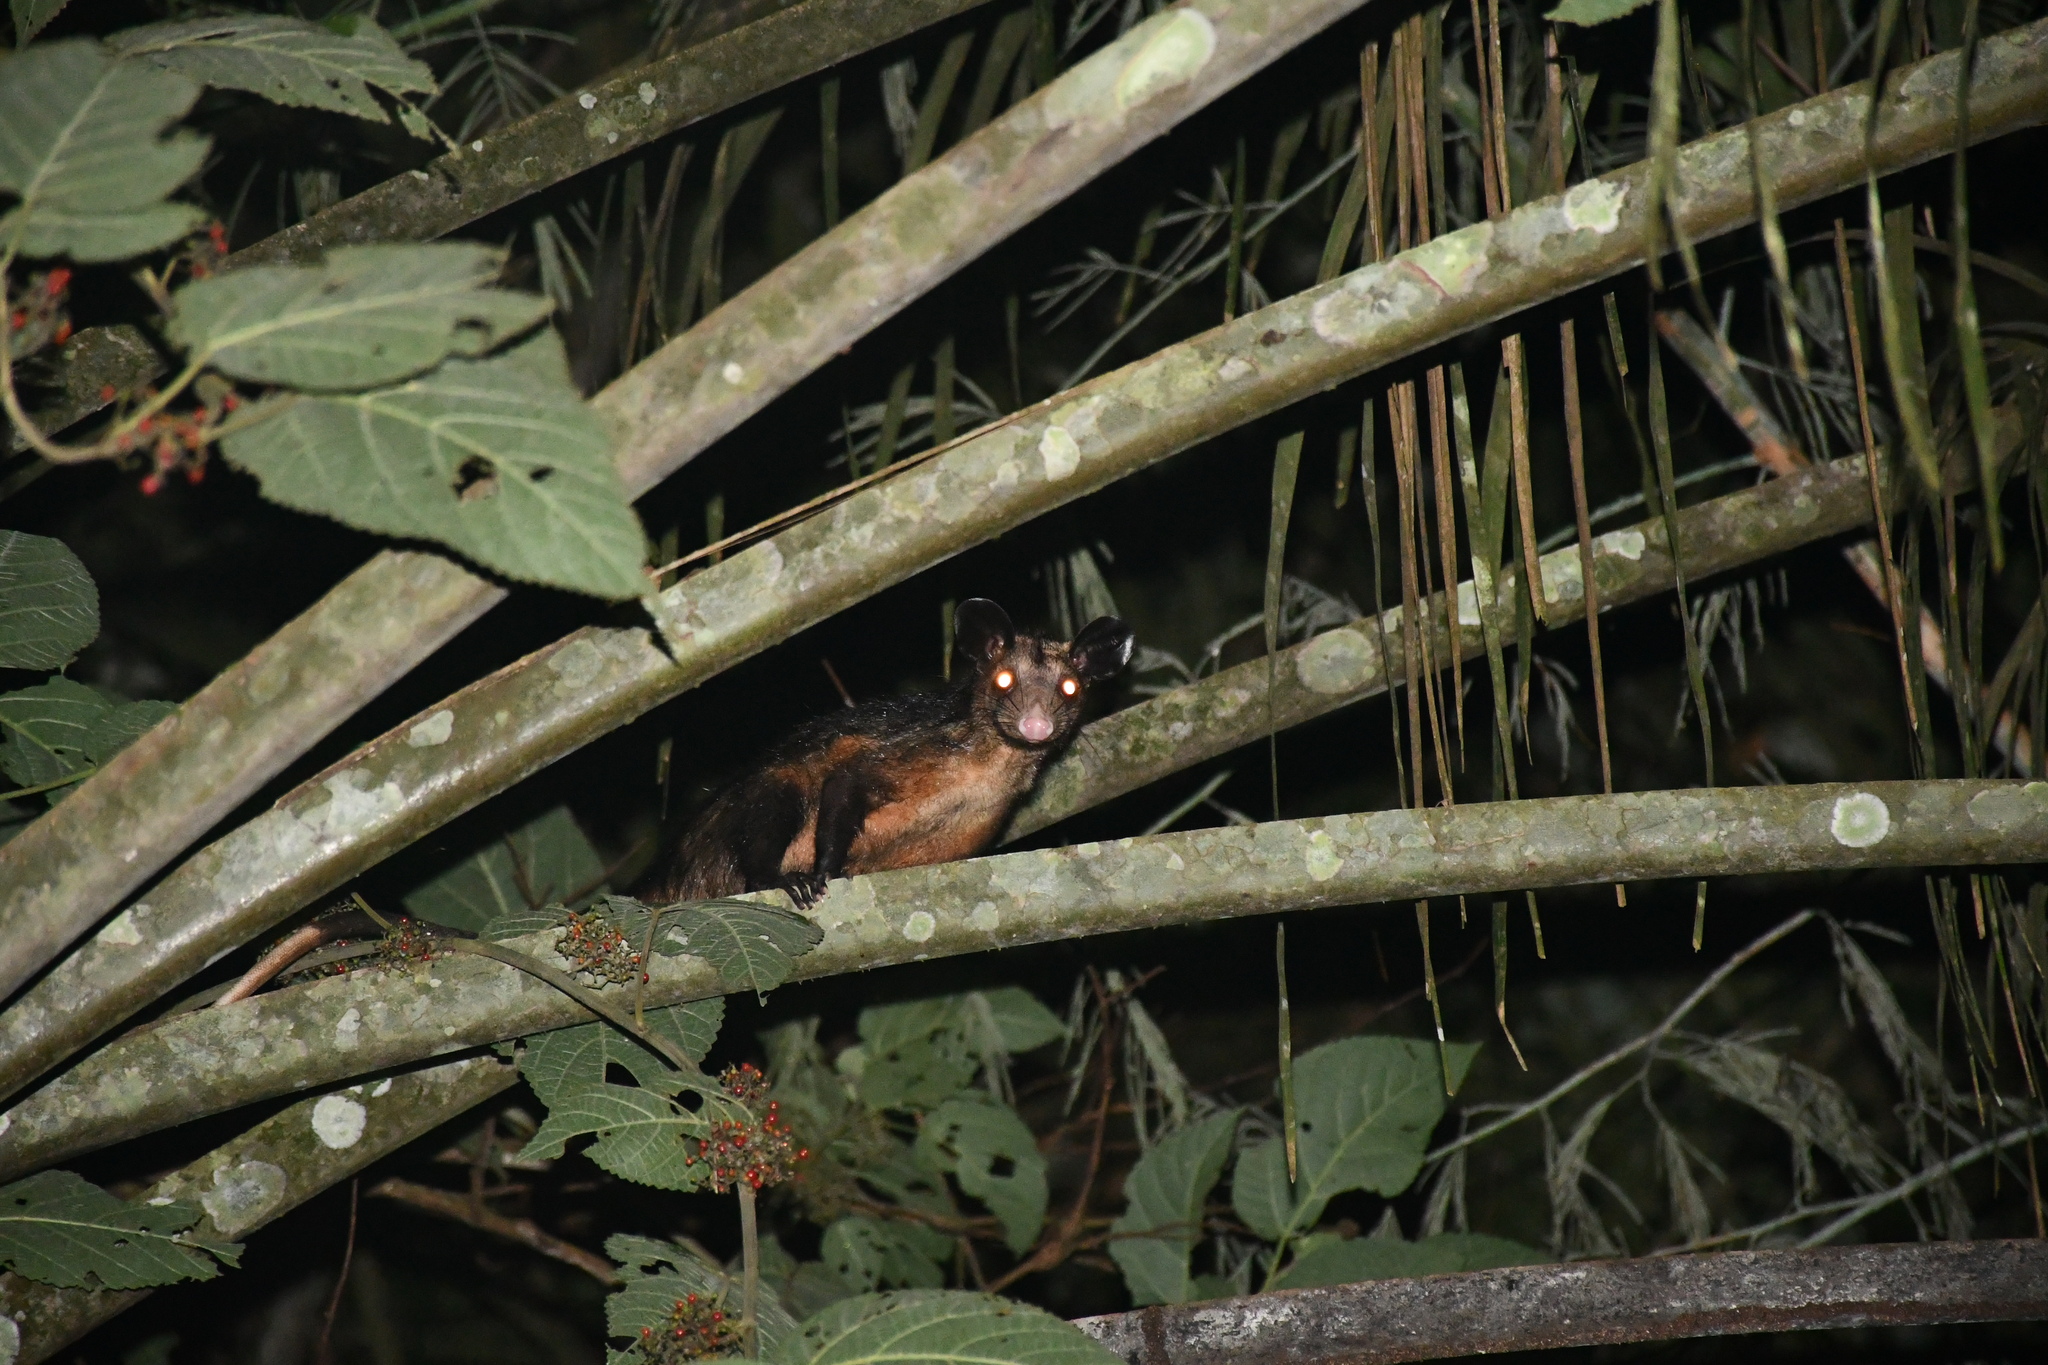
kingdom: Animalia
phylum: Chordata
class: Mammalia
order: Didelphimorphia
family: Didelphidae
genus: Didelphis
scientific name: Didelphis marsupialis
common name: Common opossum
